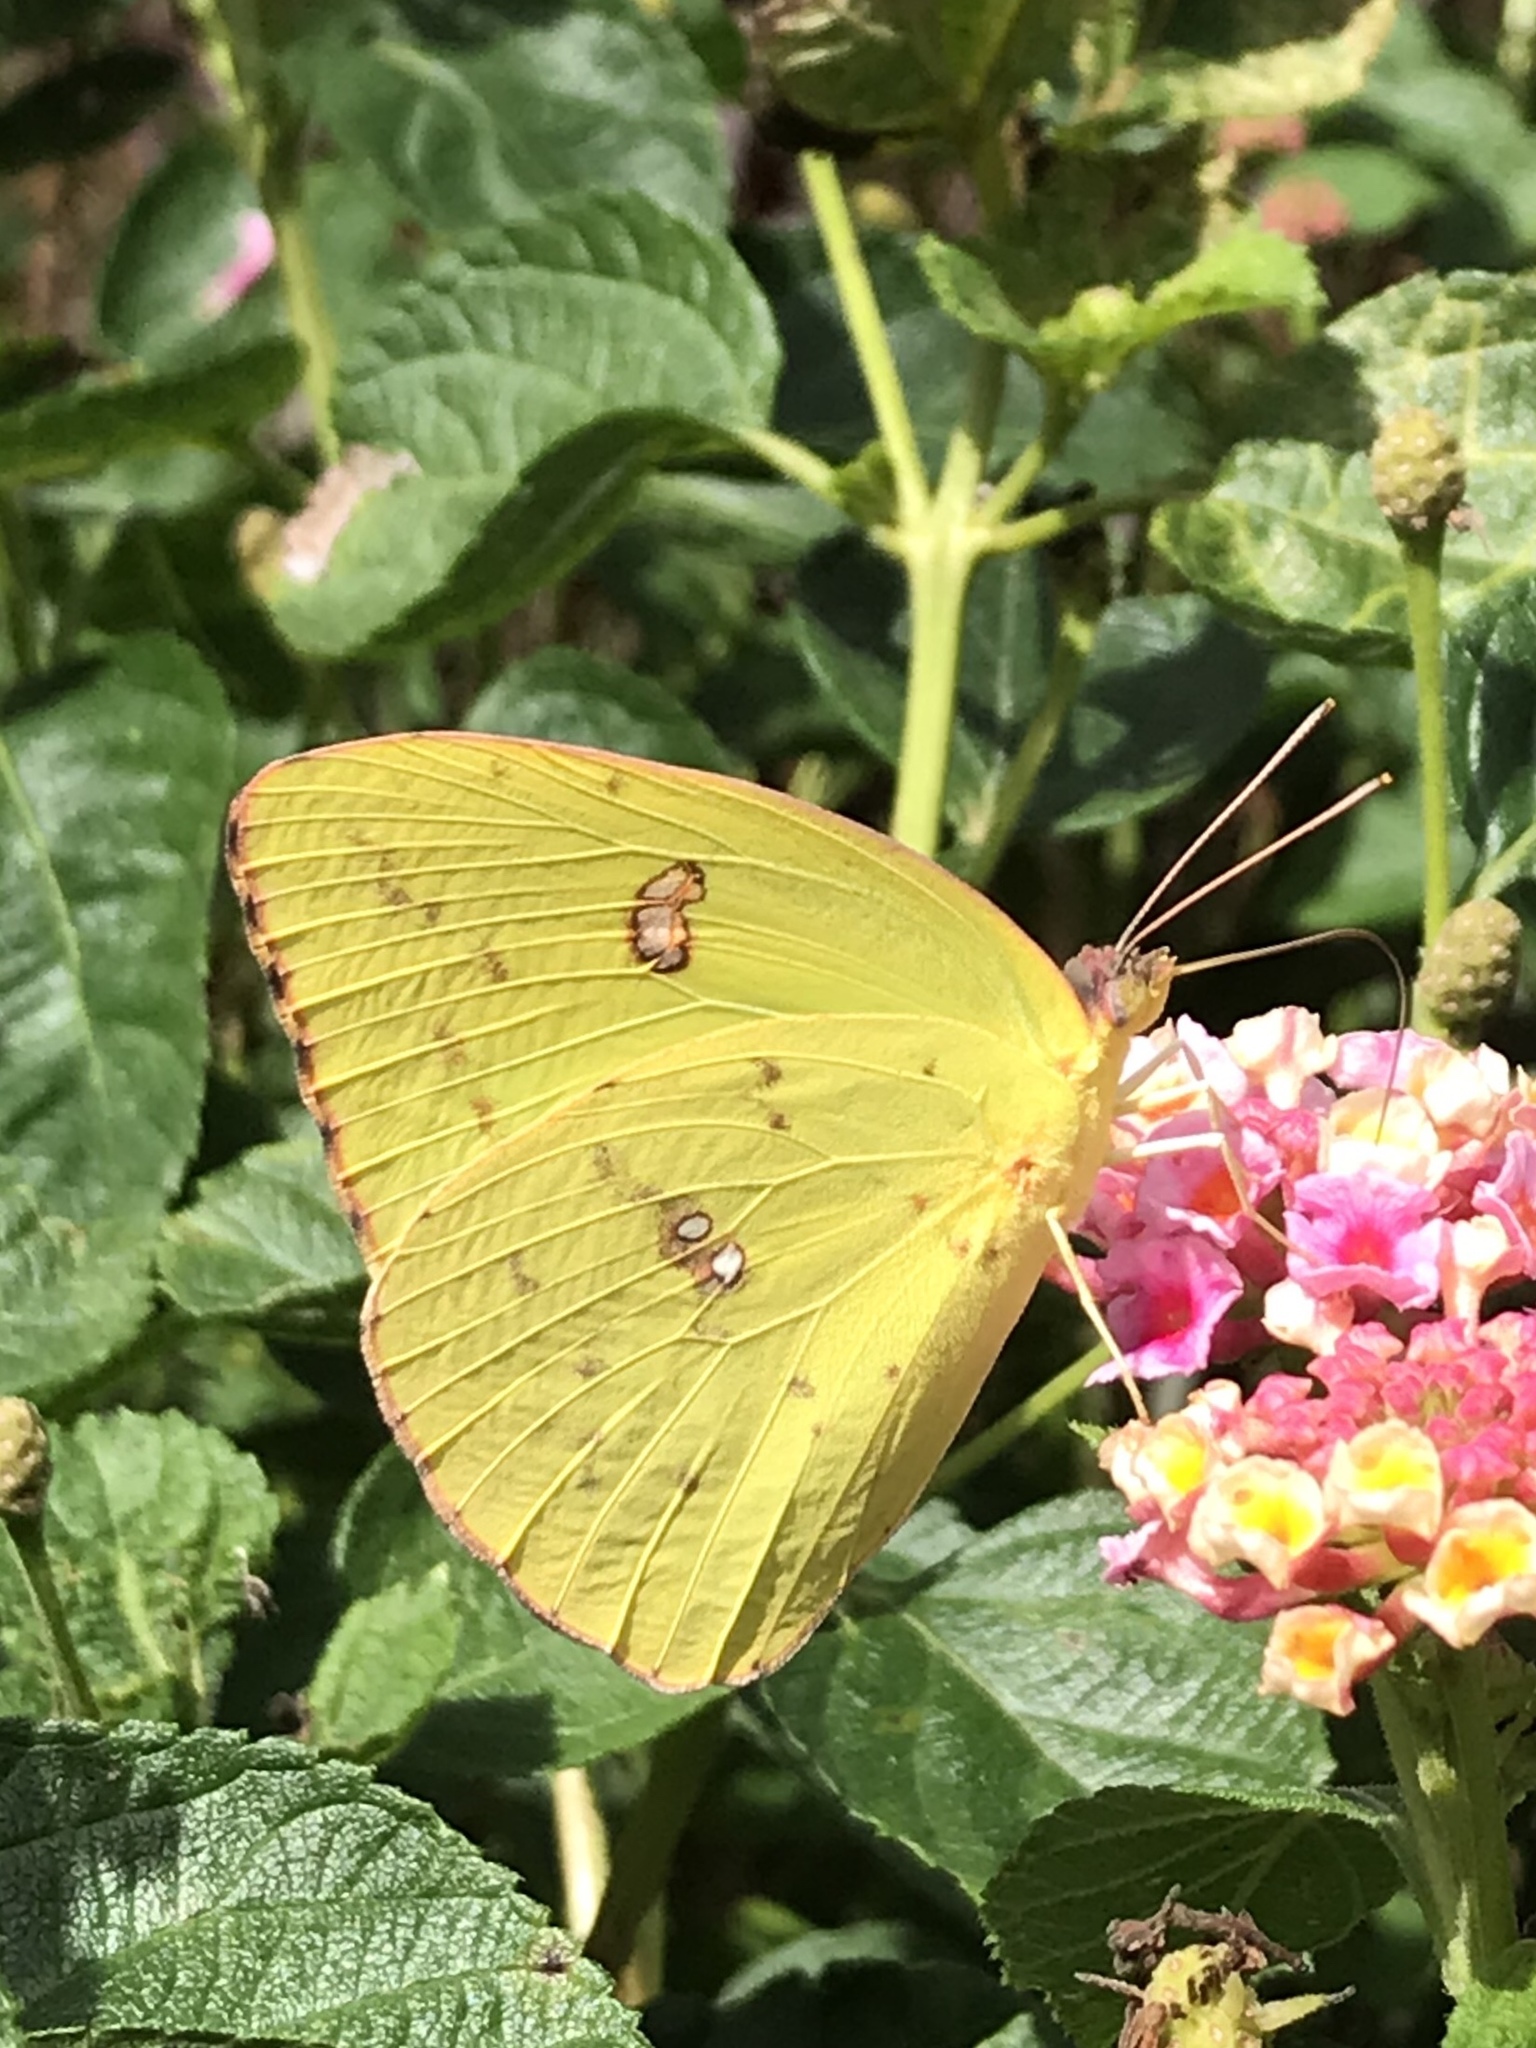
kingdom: Animalia
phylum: Arthropoda
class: Insecta
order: Lepidoptera
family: Pieridae
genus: Phoebis
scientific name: Phoebis sennae
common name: Cloudless sulphur
